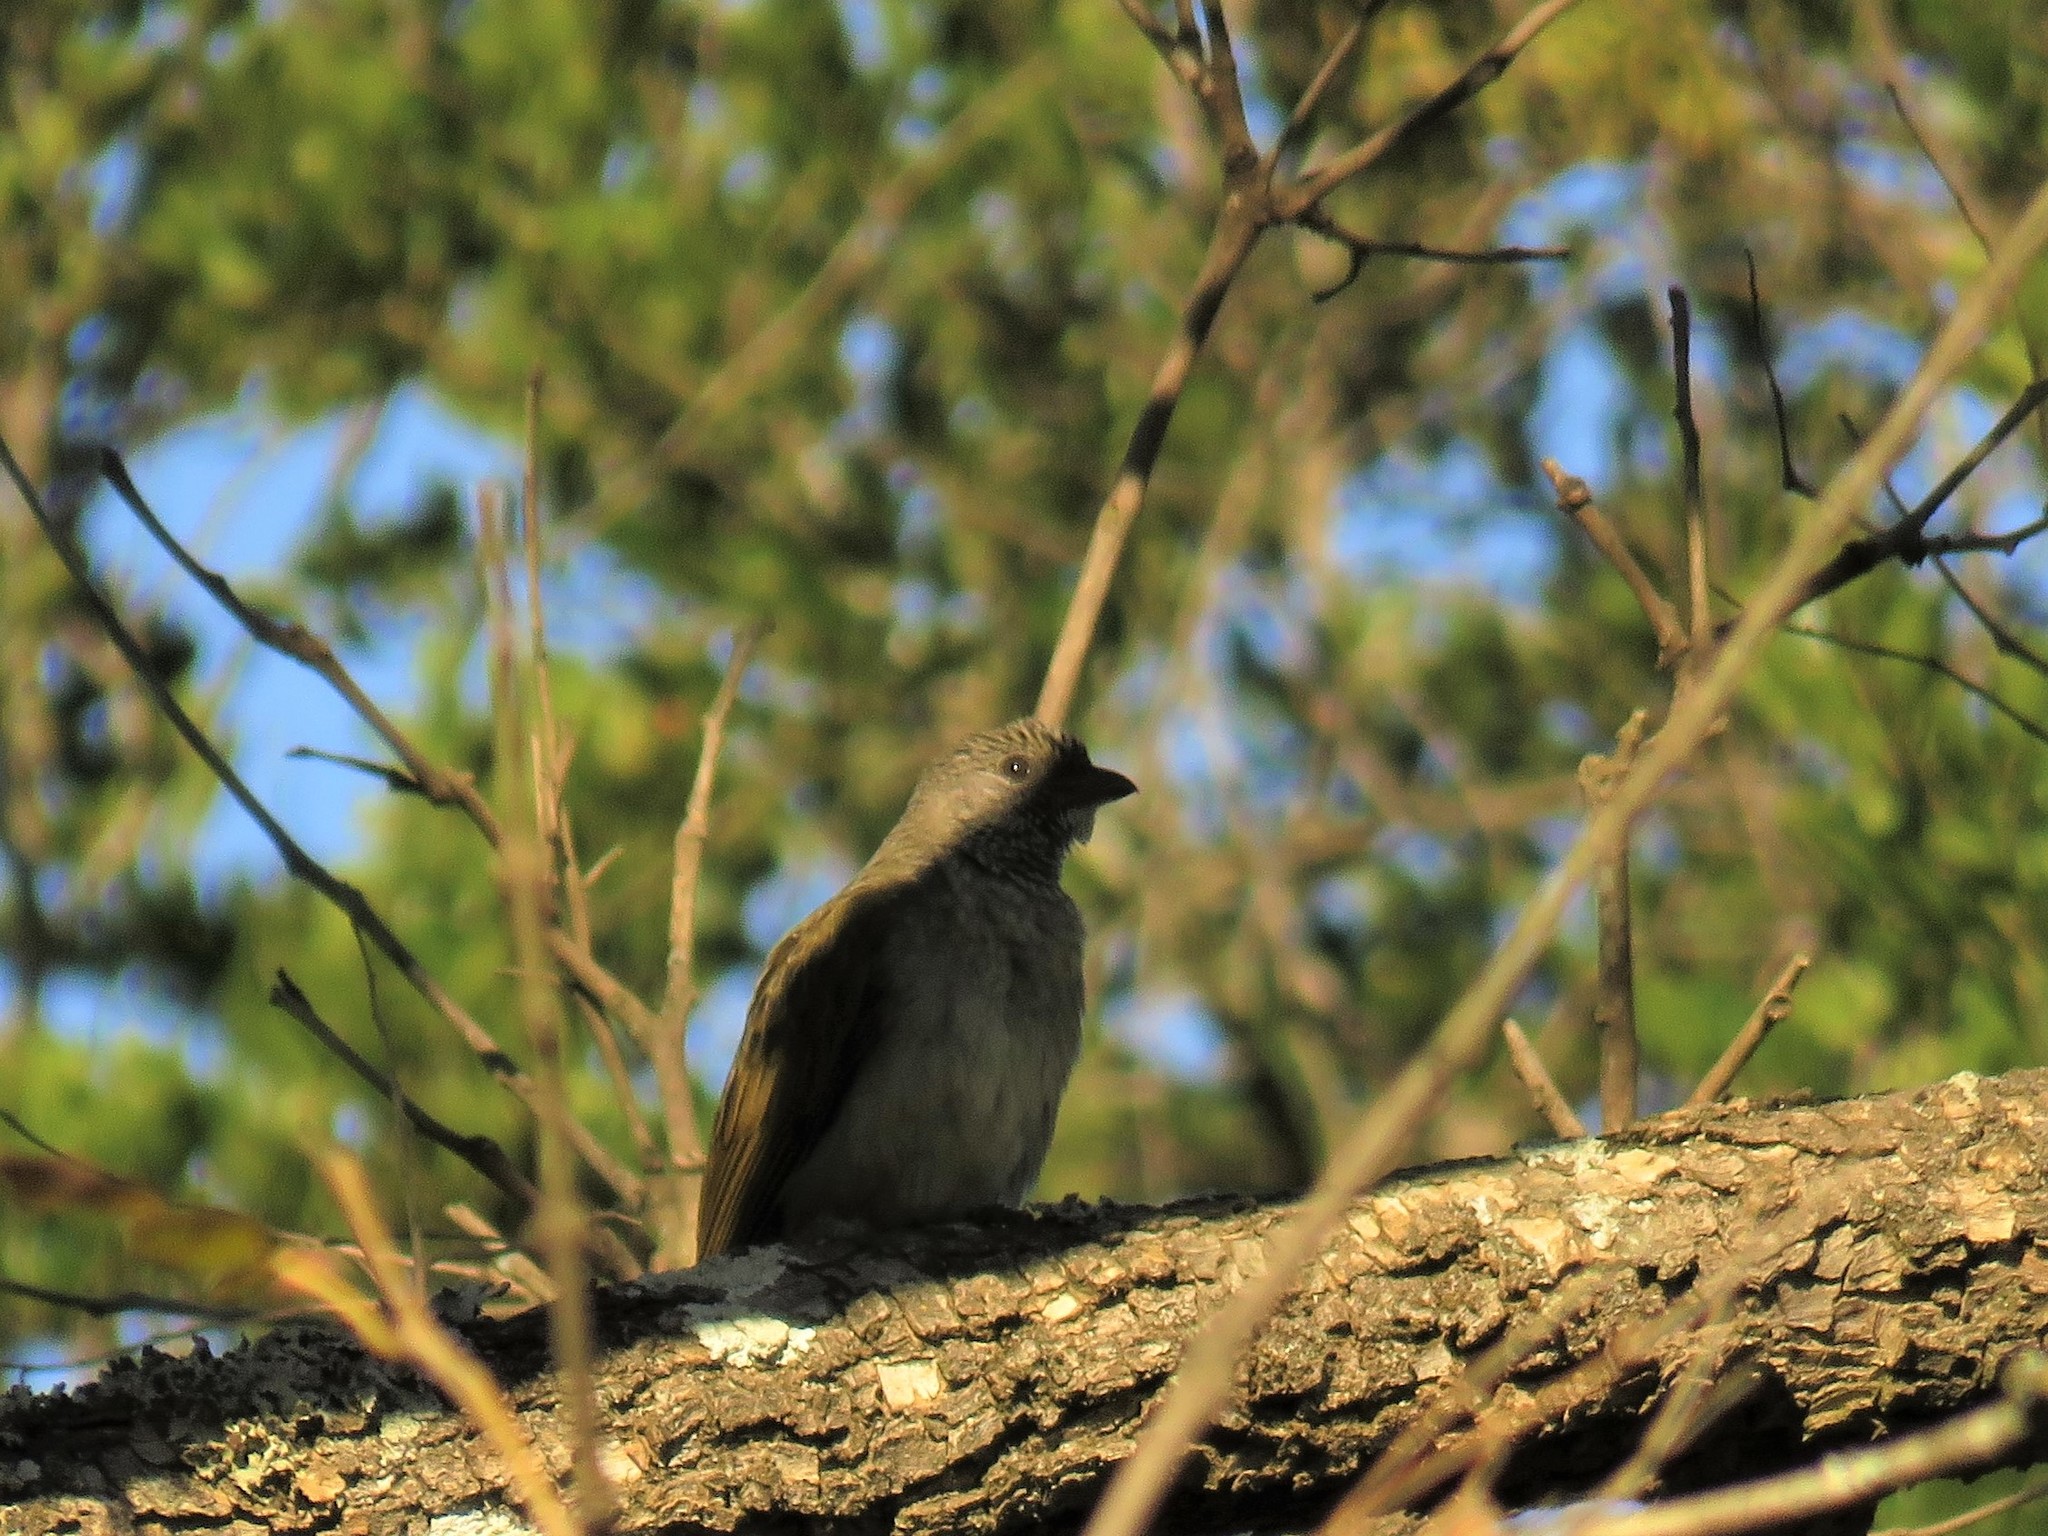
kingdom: Animalia
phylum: Chordata
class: Aves
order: Piciformes
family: Indicatoridae
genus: Indicator
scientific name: Indicator variegatus
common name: Scaly-throated honeyguide
